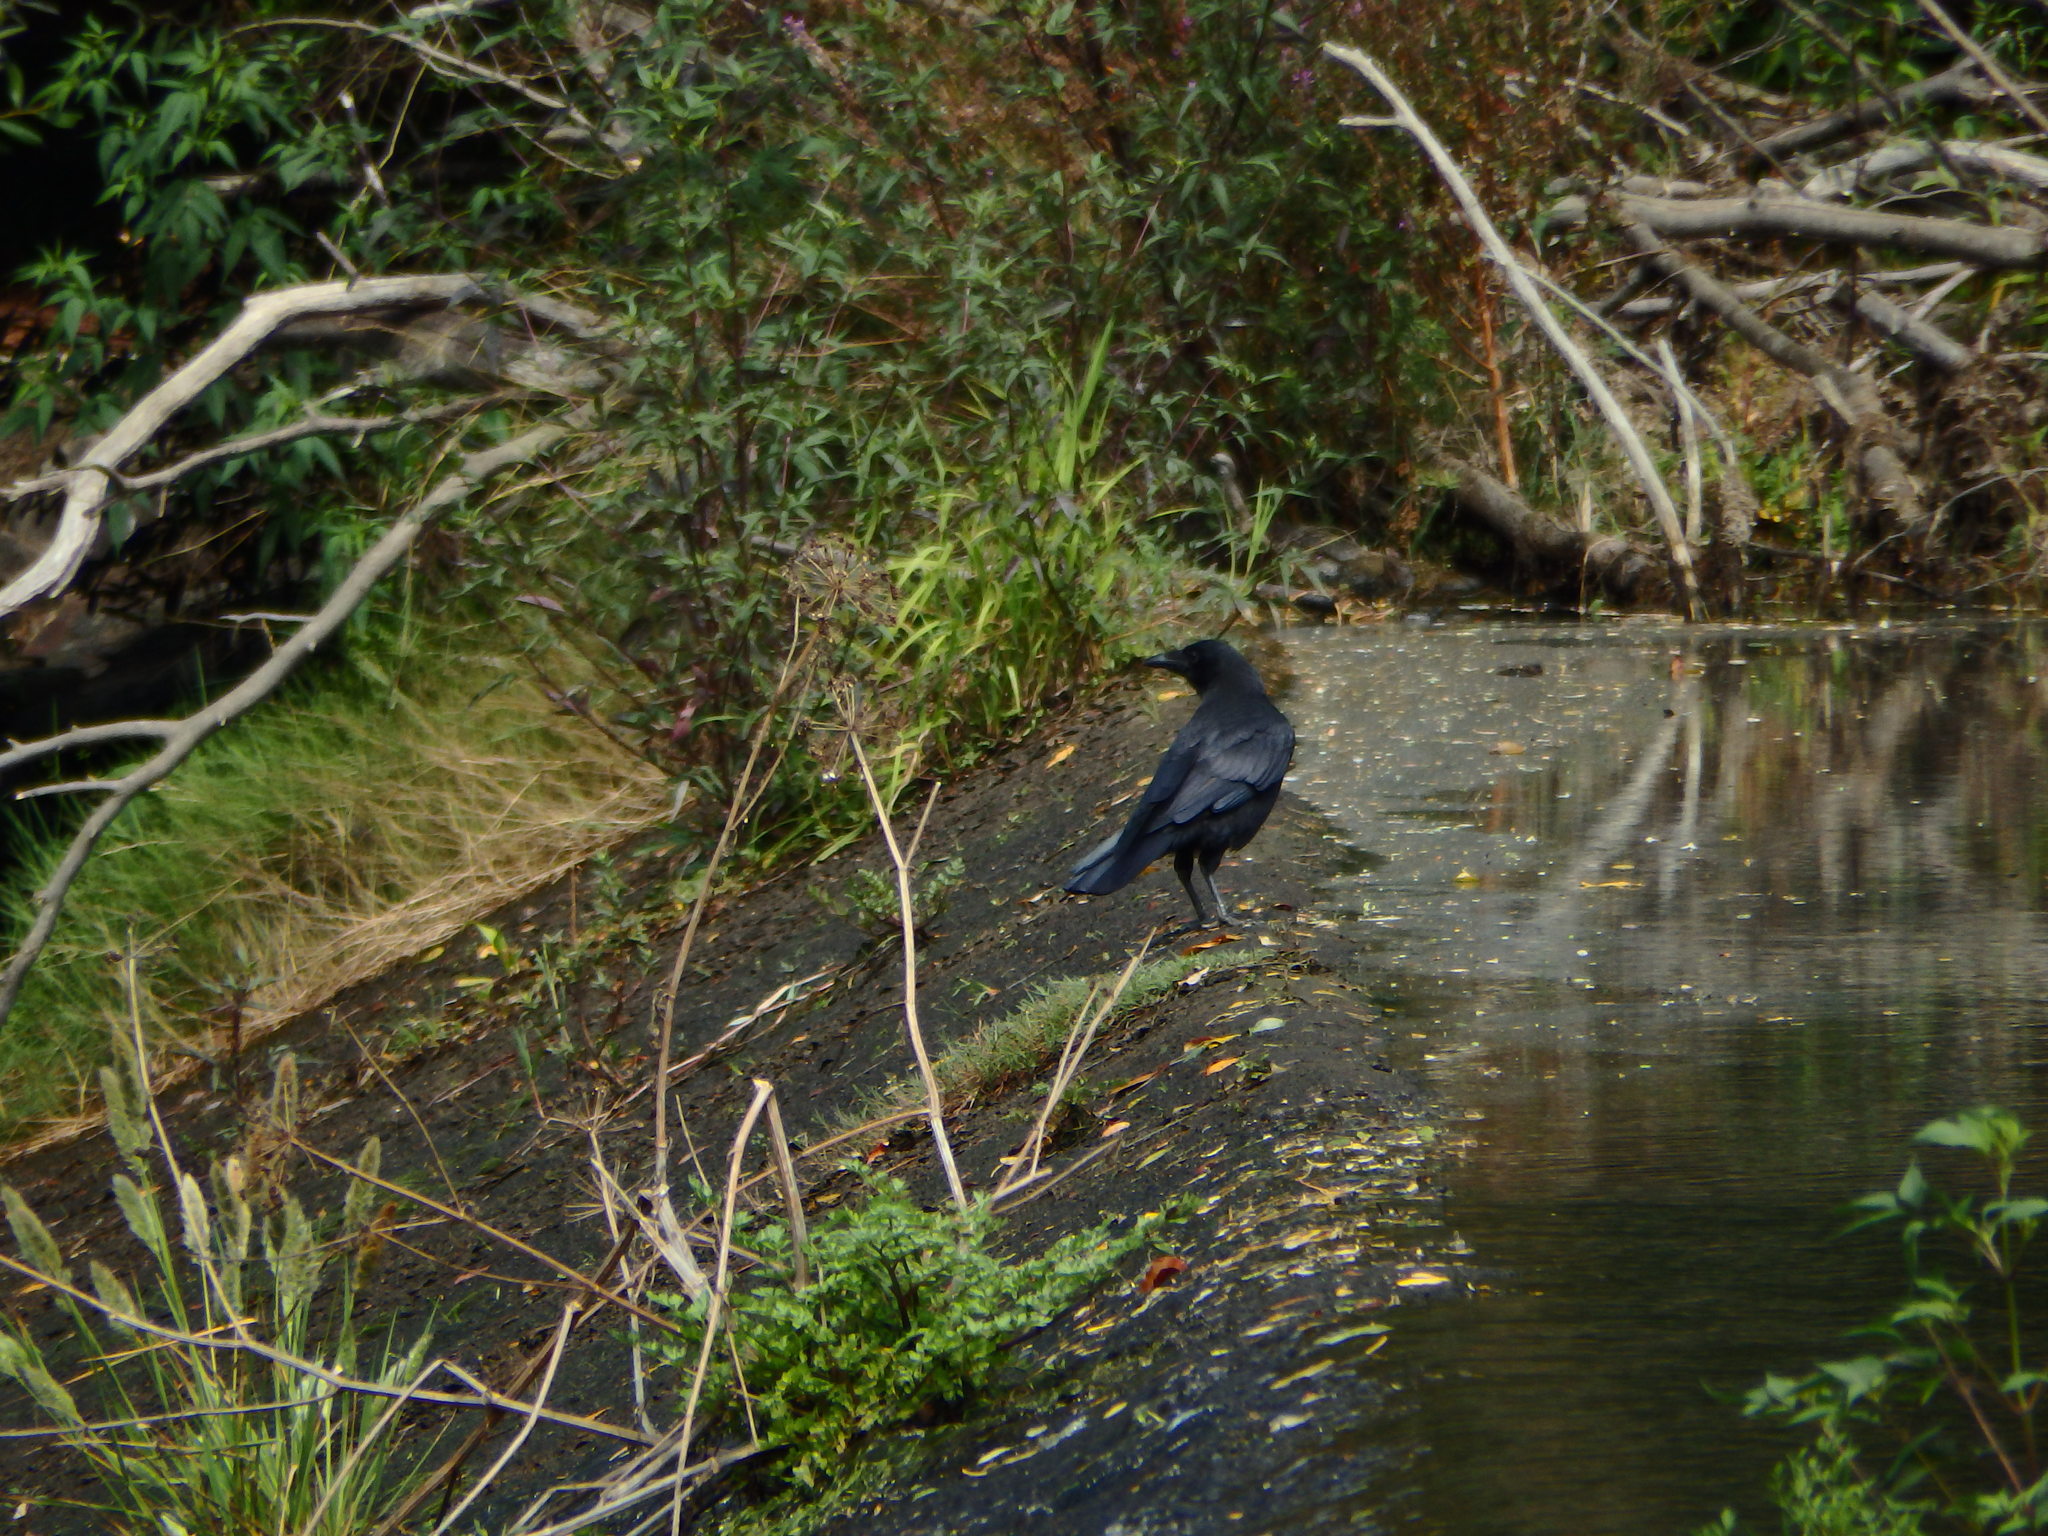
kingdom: Animalia
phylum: Chordata
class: Aves
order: Passeriformes
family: Corvidae
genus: Corvus
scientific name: Corvus corone
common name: Carrion crow
